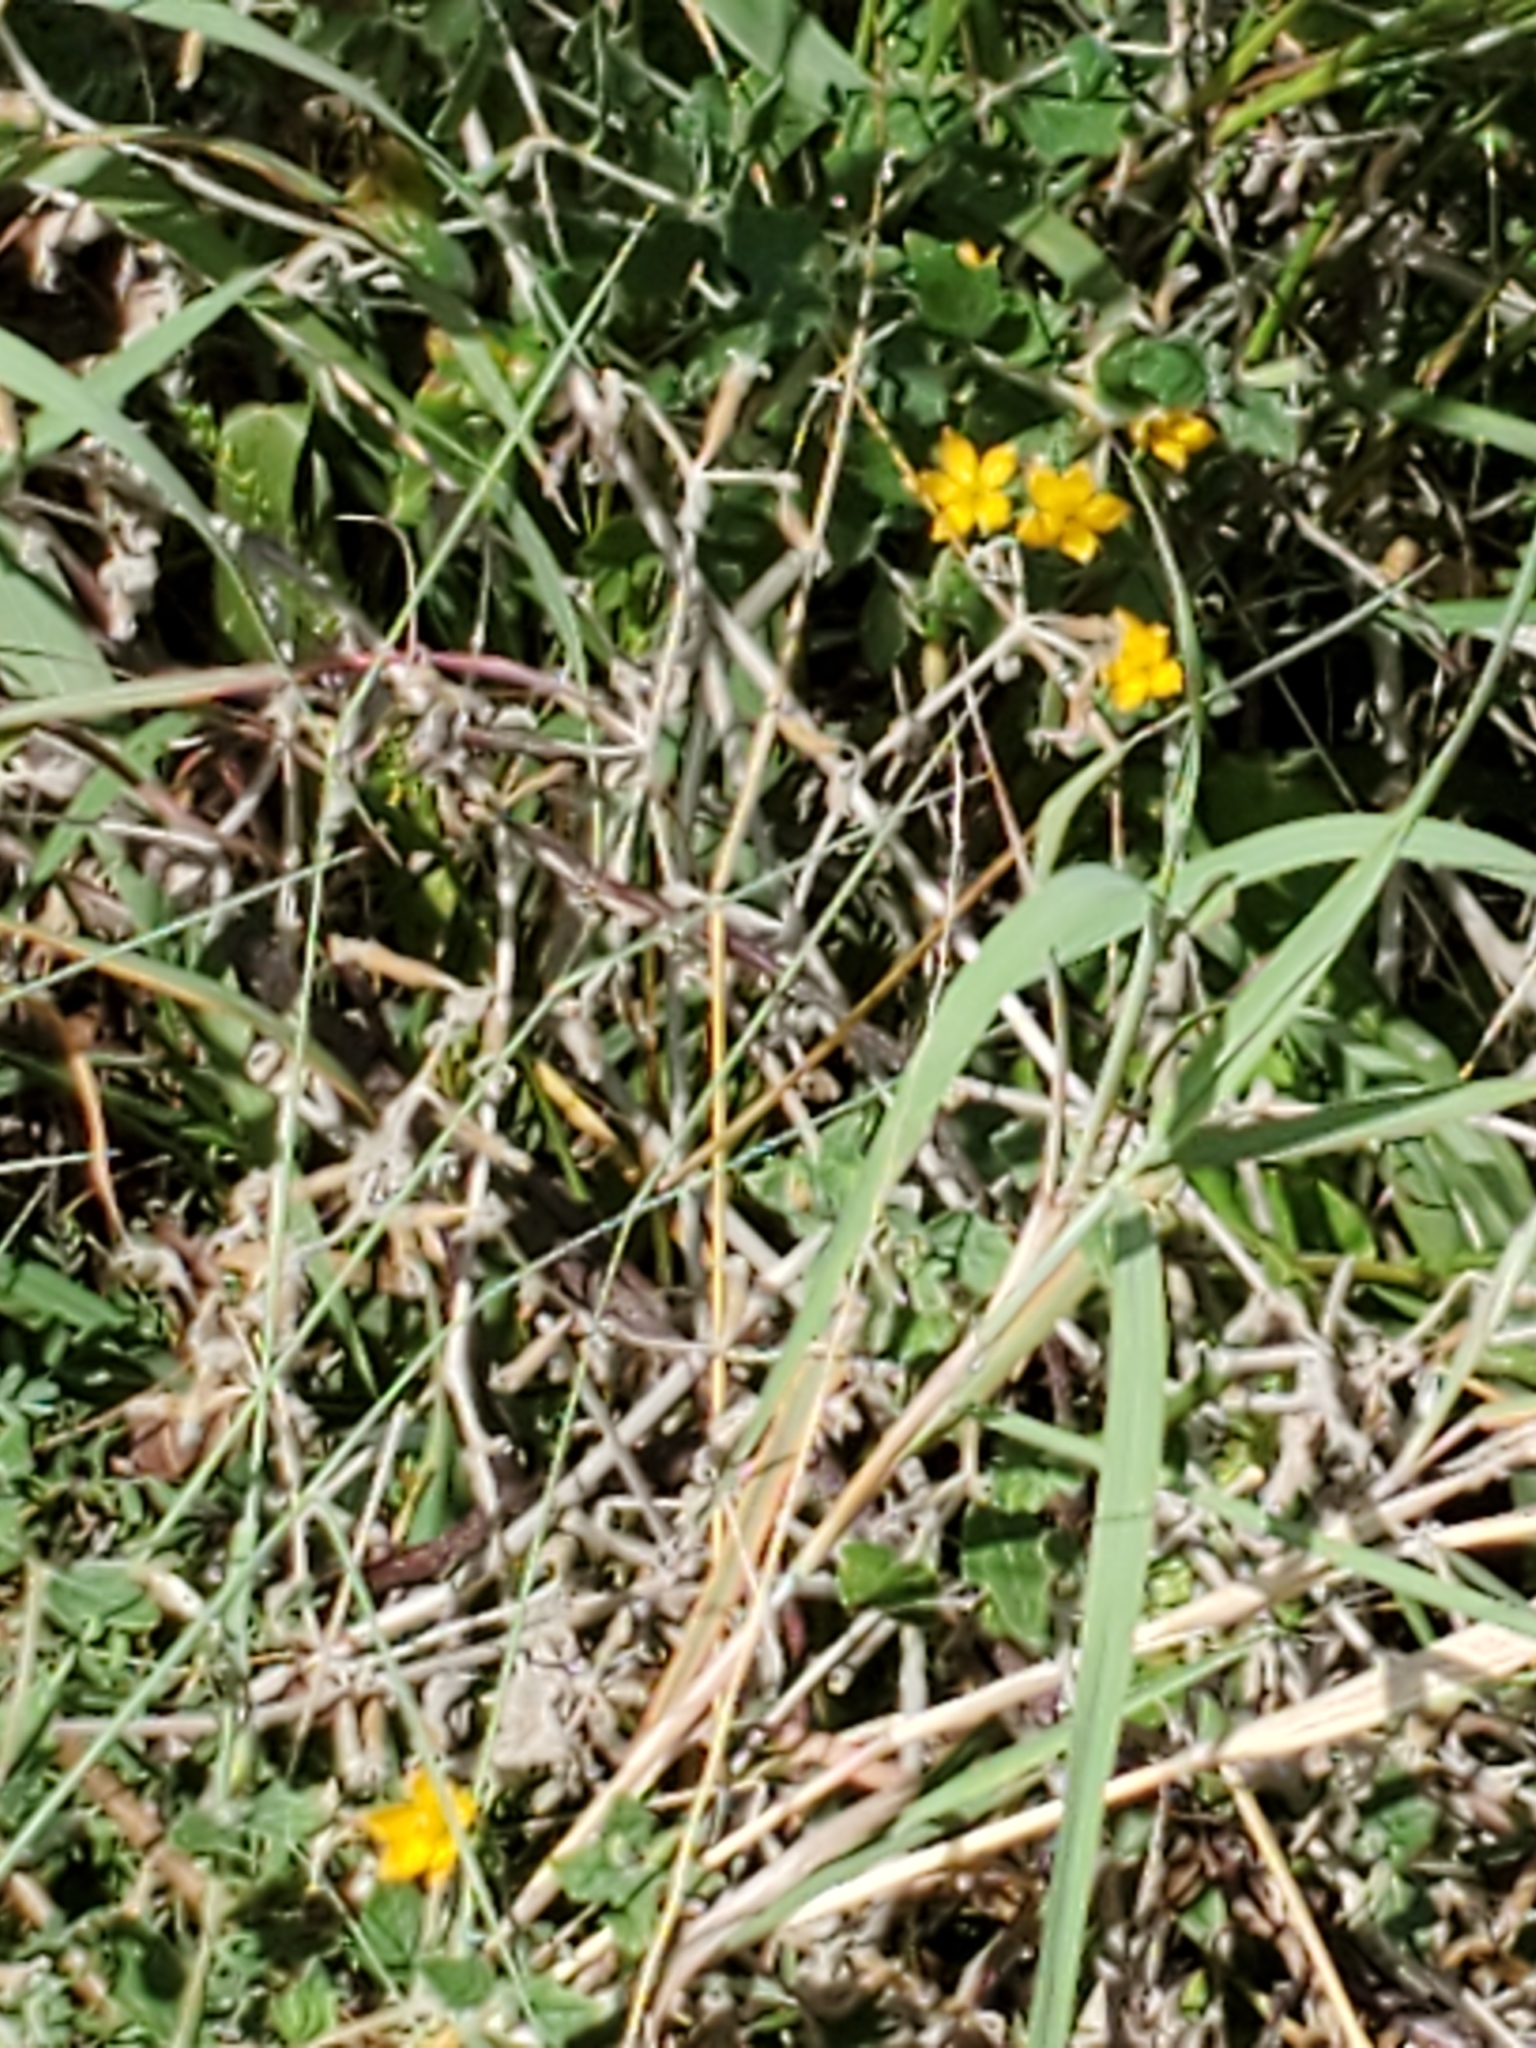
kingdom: Plantae
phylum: Tracheophyta
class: Magnoliopsida
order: Cornales
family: Loasaceae
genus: Mentzelia
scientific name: Mentzelia oligosperma
